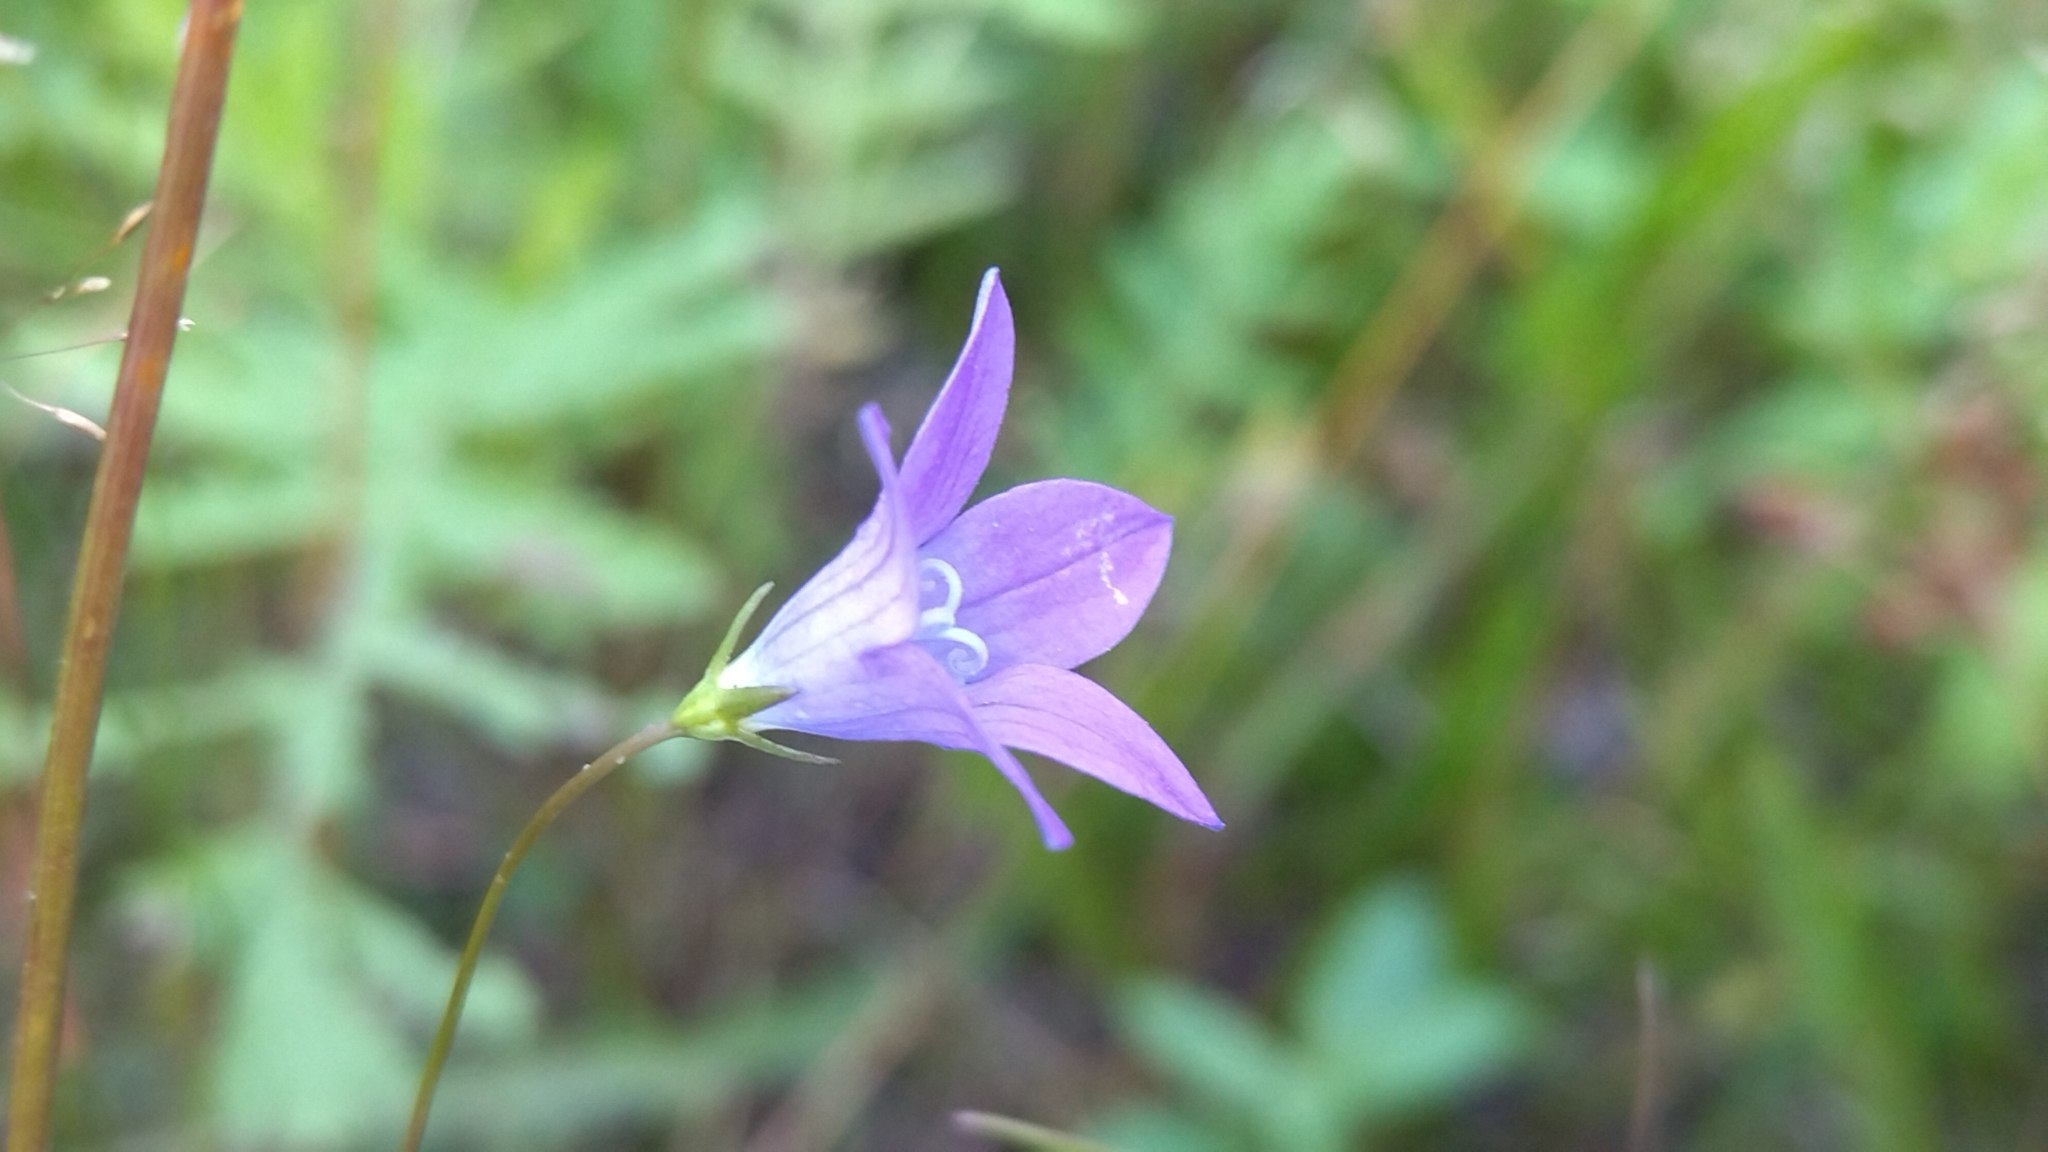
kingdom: Plantae
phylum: Tracheophyta
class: Magnoliopsida
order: Asterales
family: Campanulaceae
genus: Campanula
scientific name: Campanula patula
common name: Spreading bellflower
